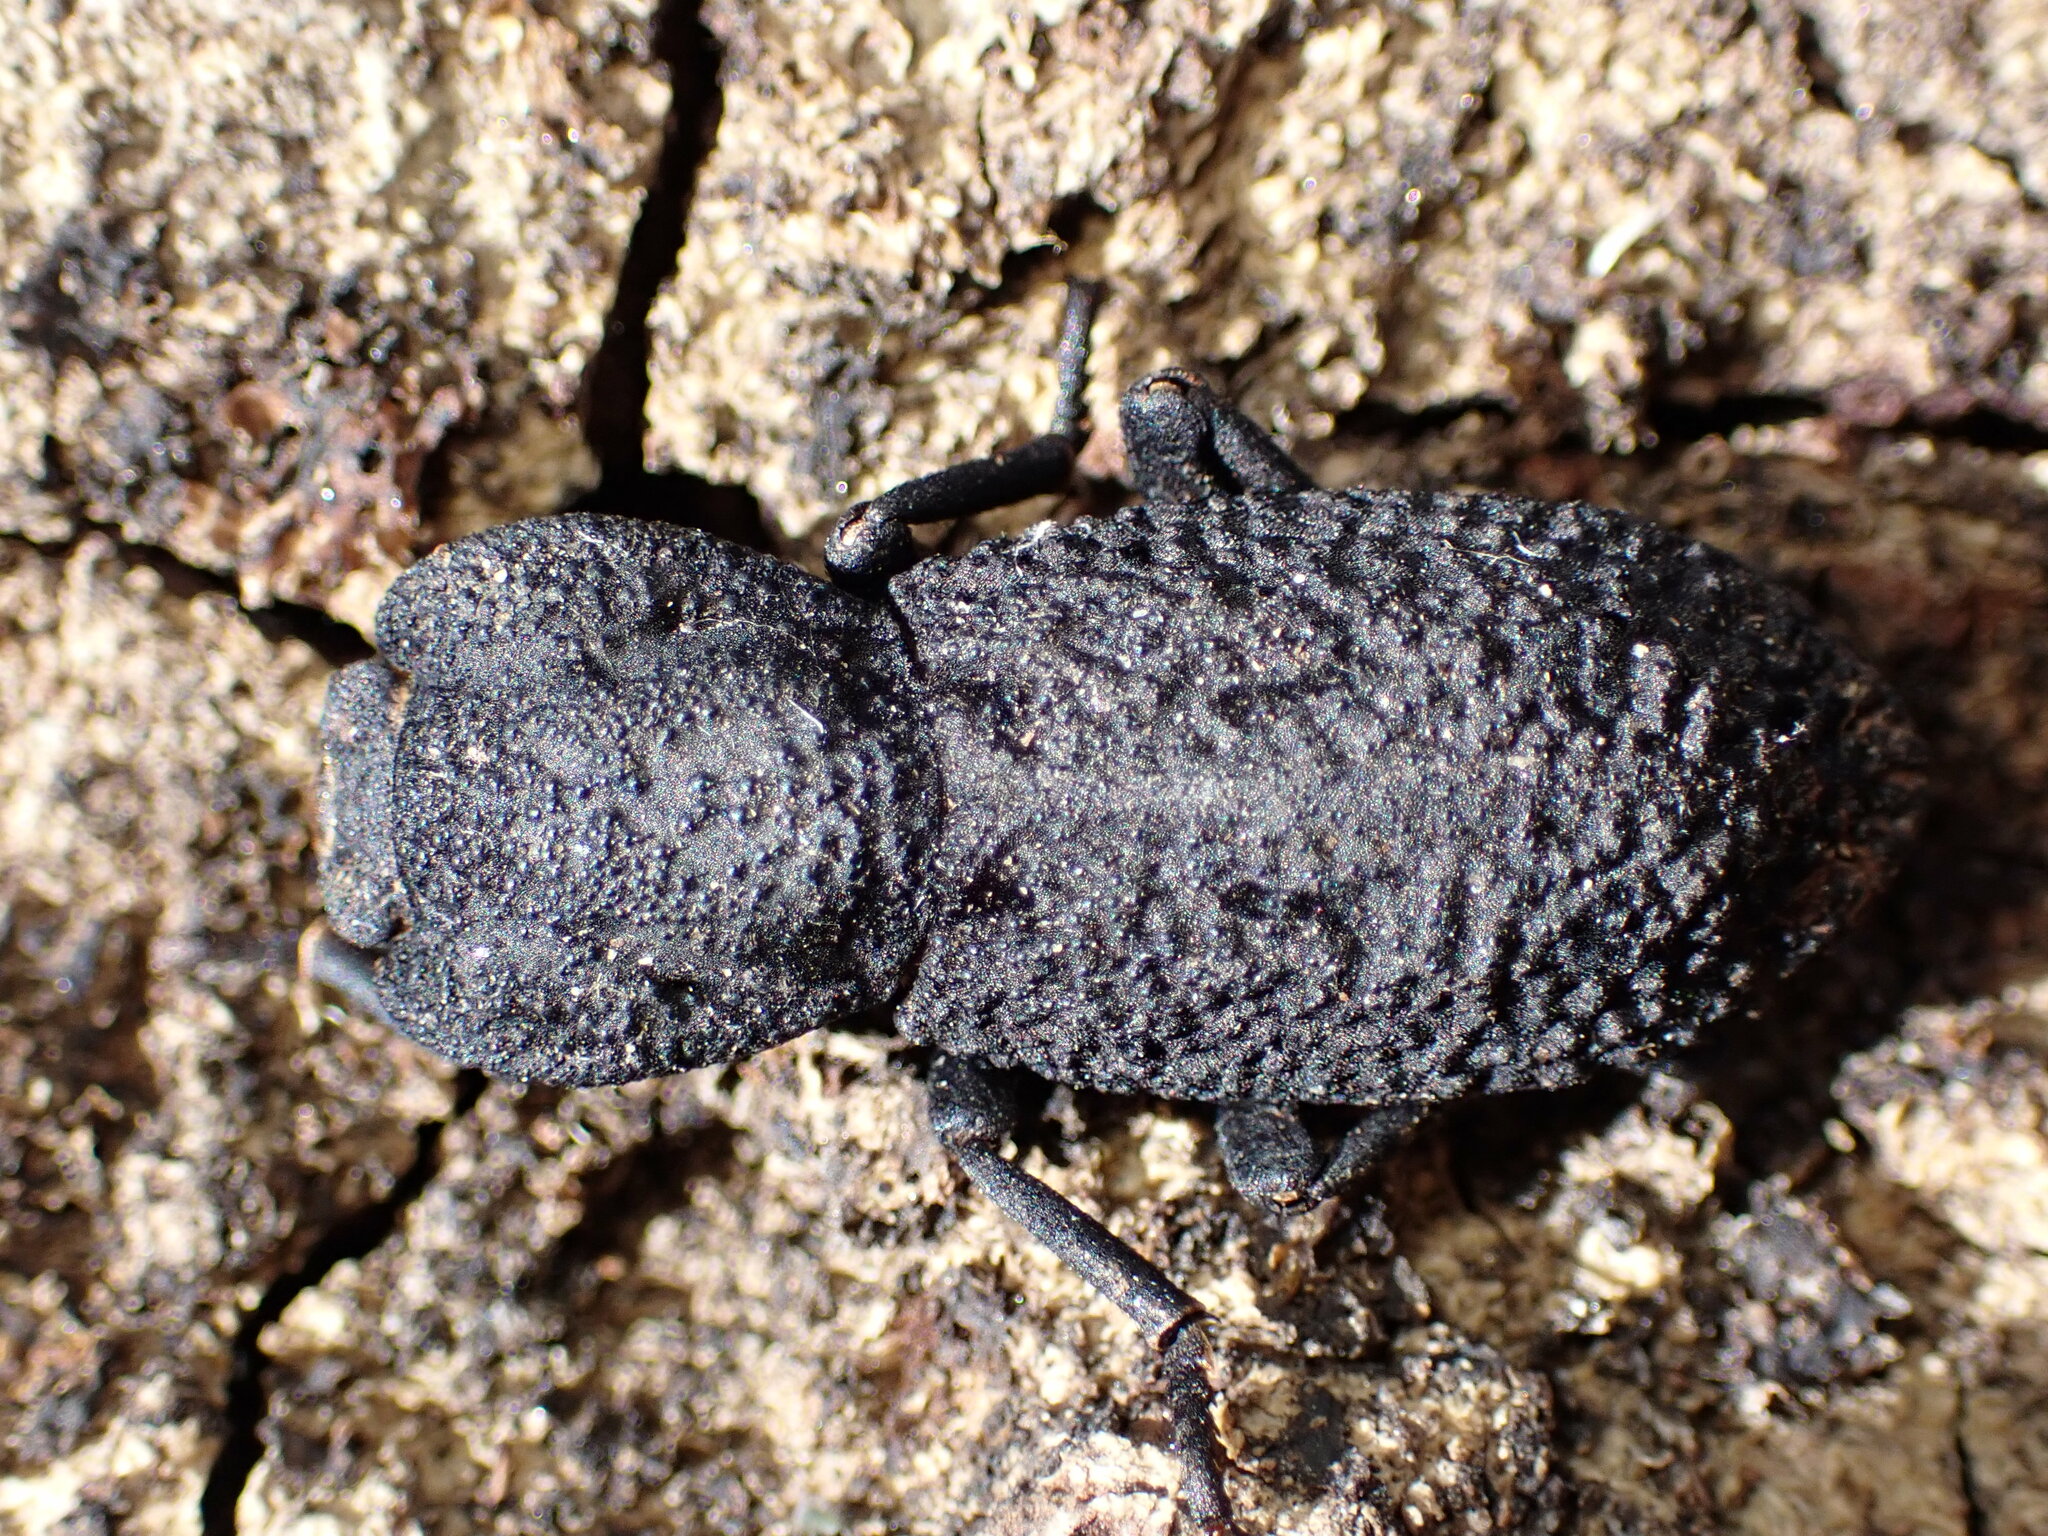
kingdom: Animalia
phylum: Arthropoda
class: Insecta
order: Coleoptera
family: Zopheridae
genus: Phloeodes
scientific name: Phloeodes diabolicus
